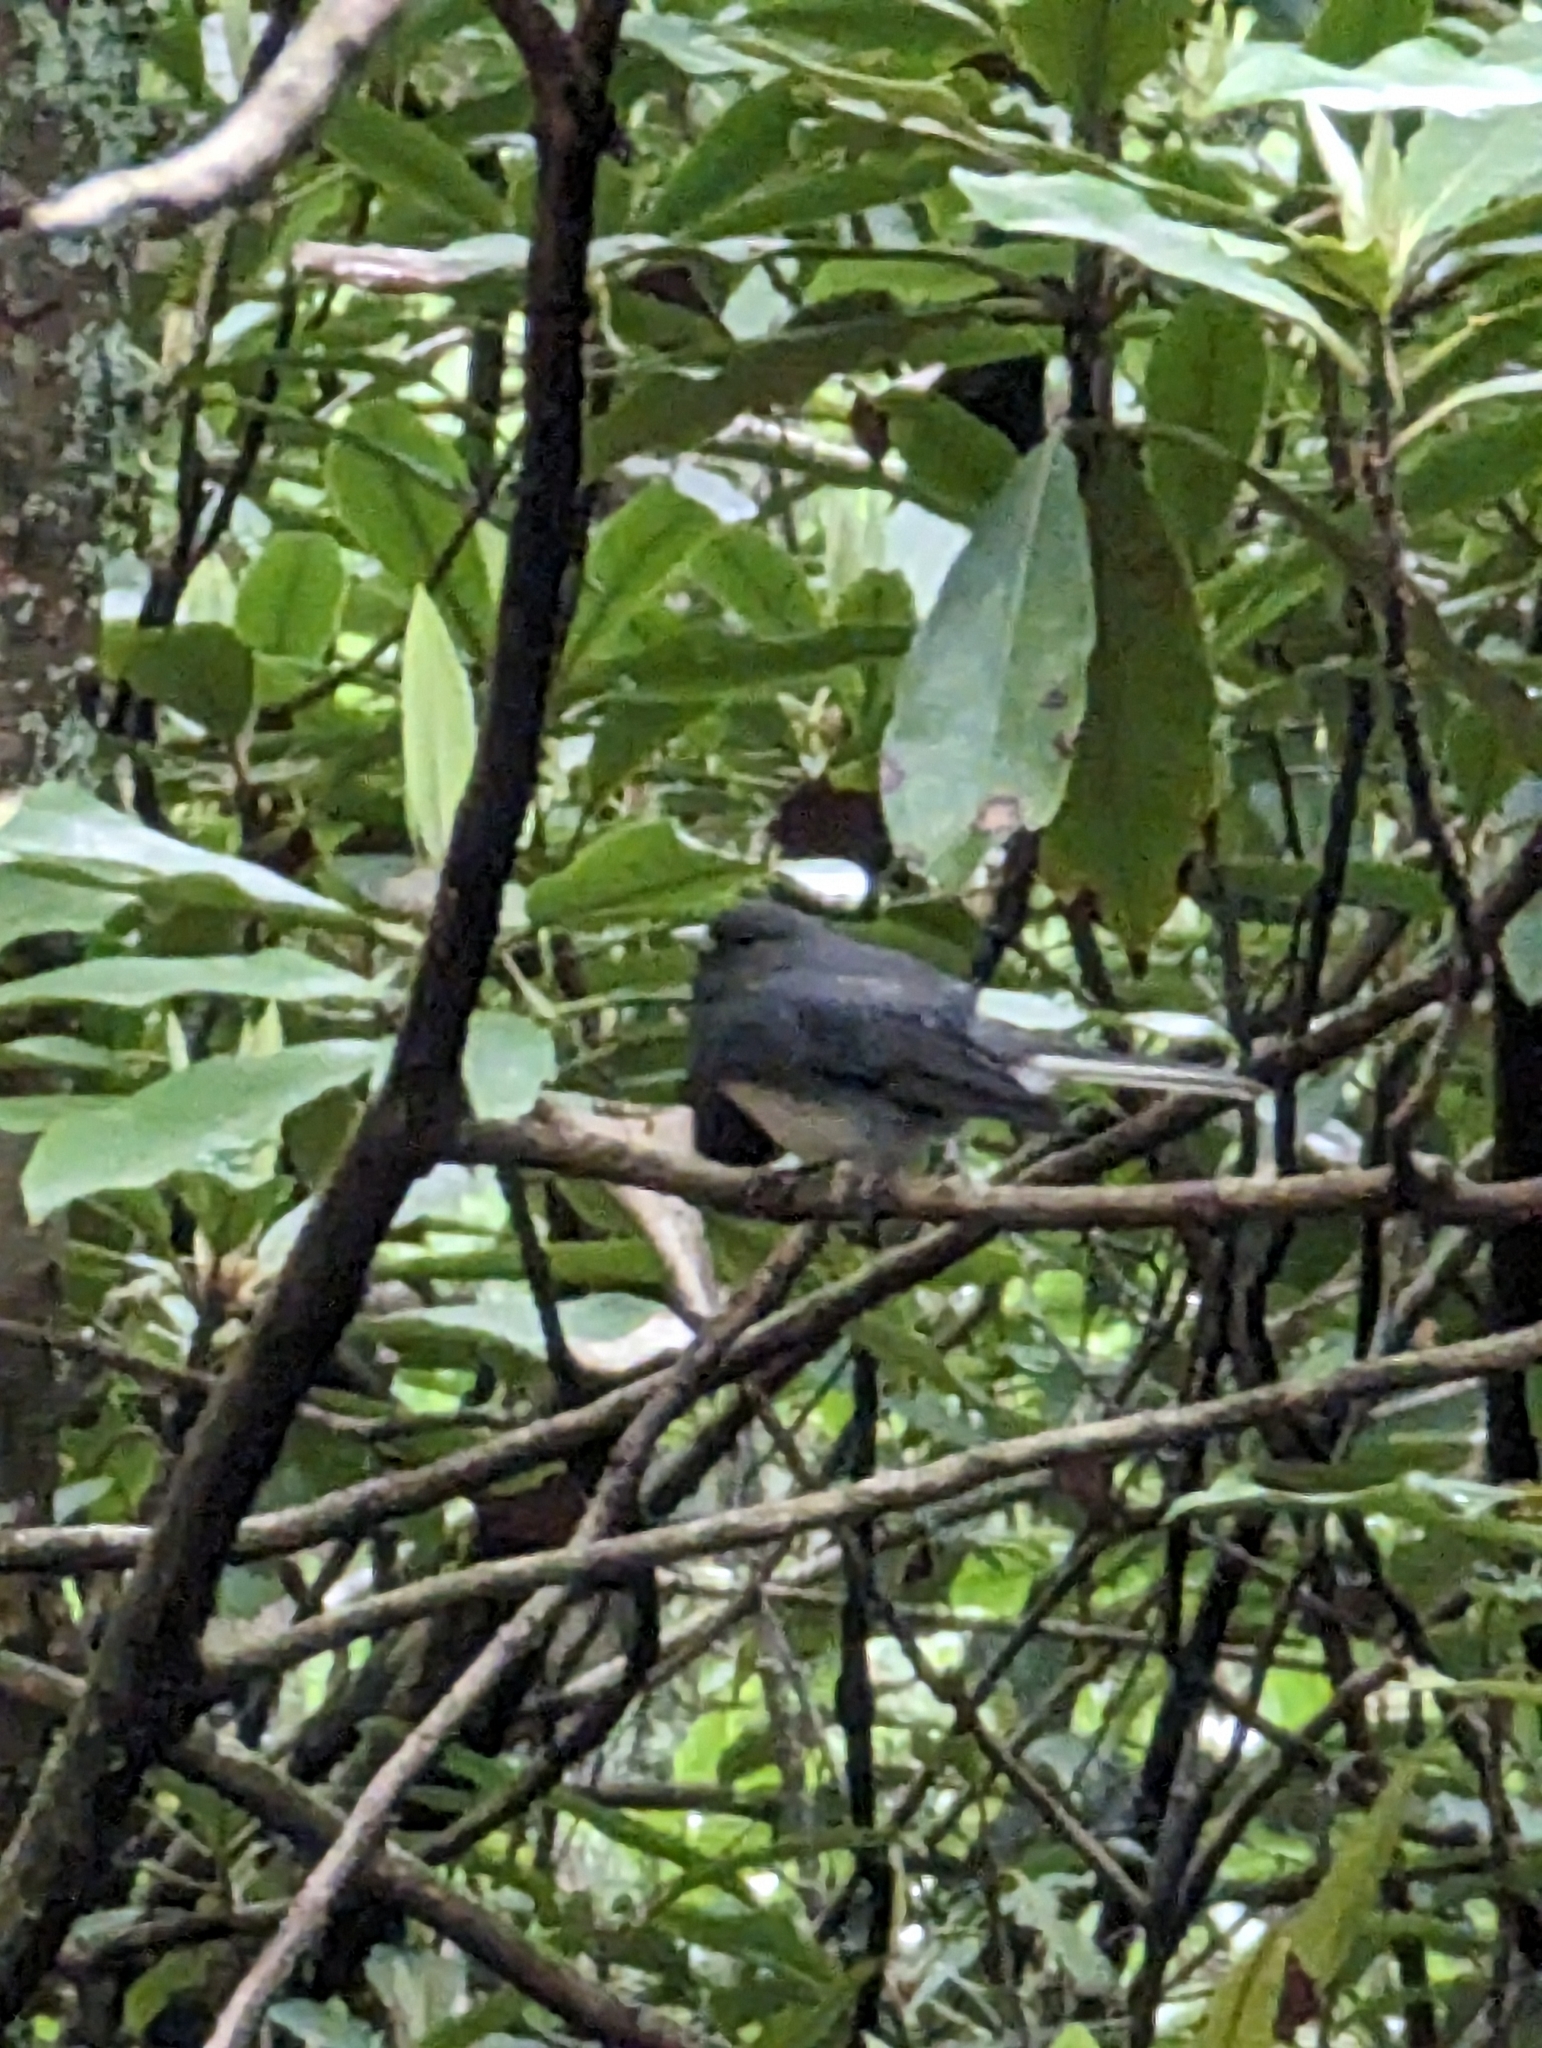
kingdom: Animalia
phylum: Chordata
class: Aves
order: Passeriformes
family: Passerellidae
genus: Junco
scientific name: Junco hyemalis
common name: Dark-eyed junco
